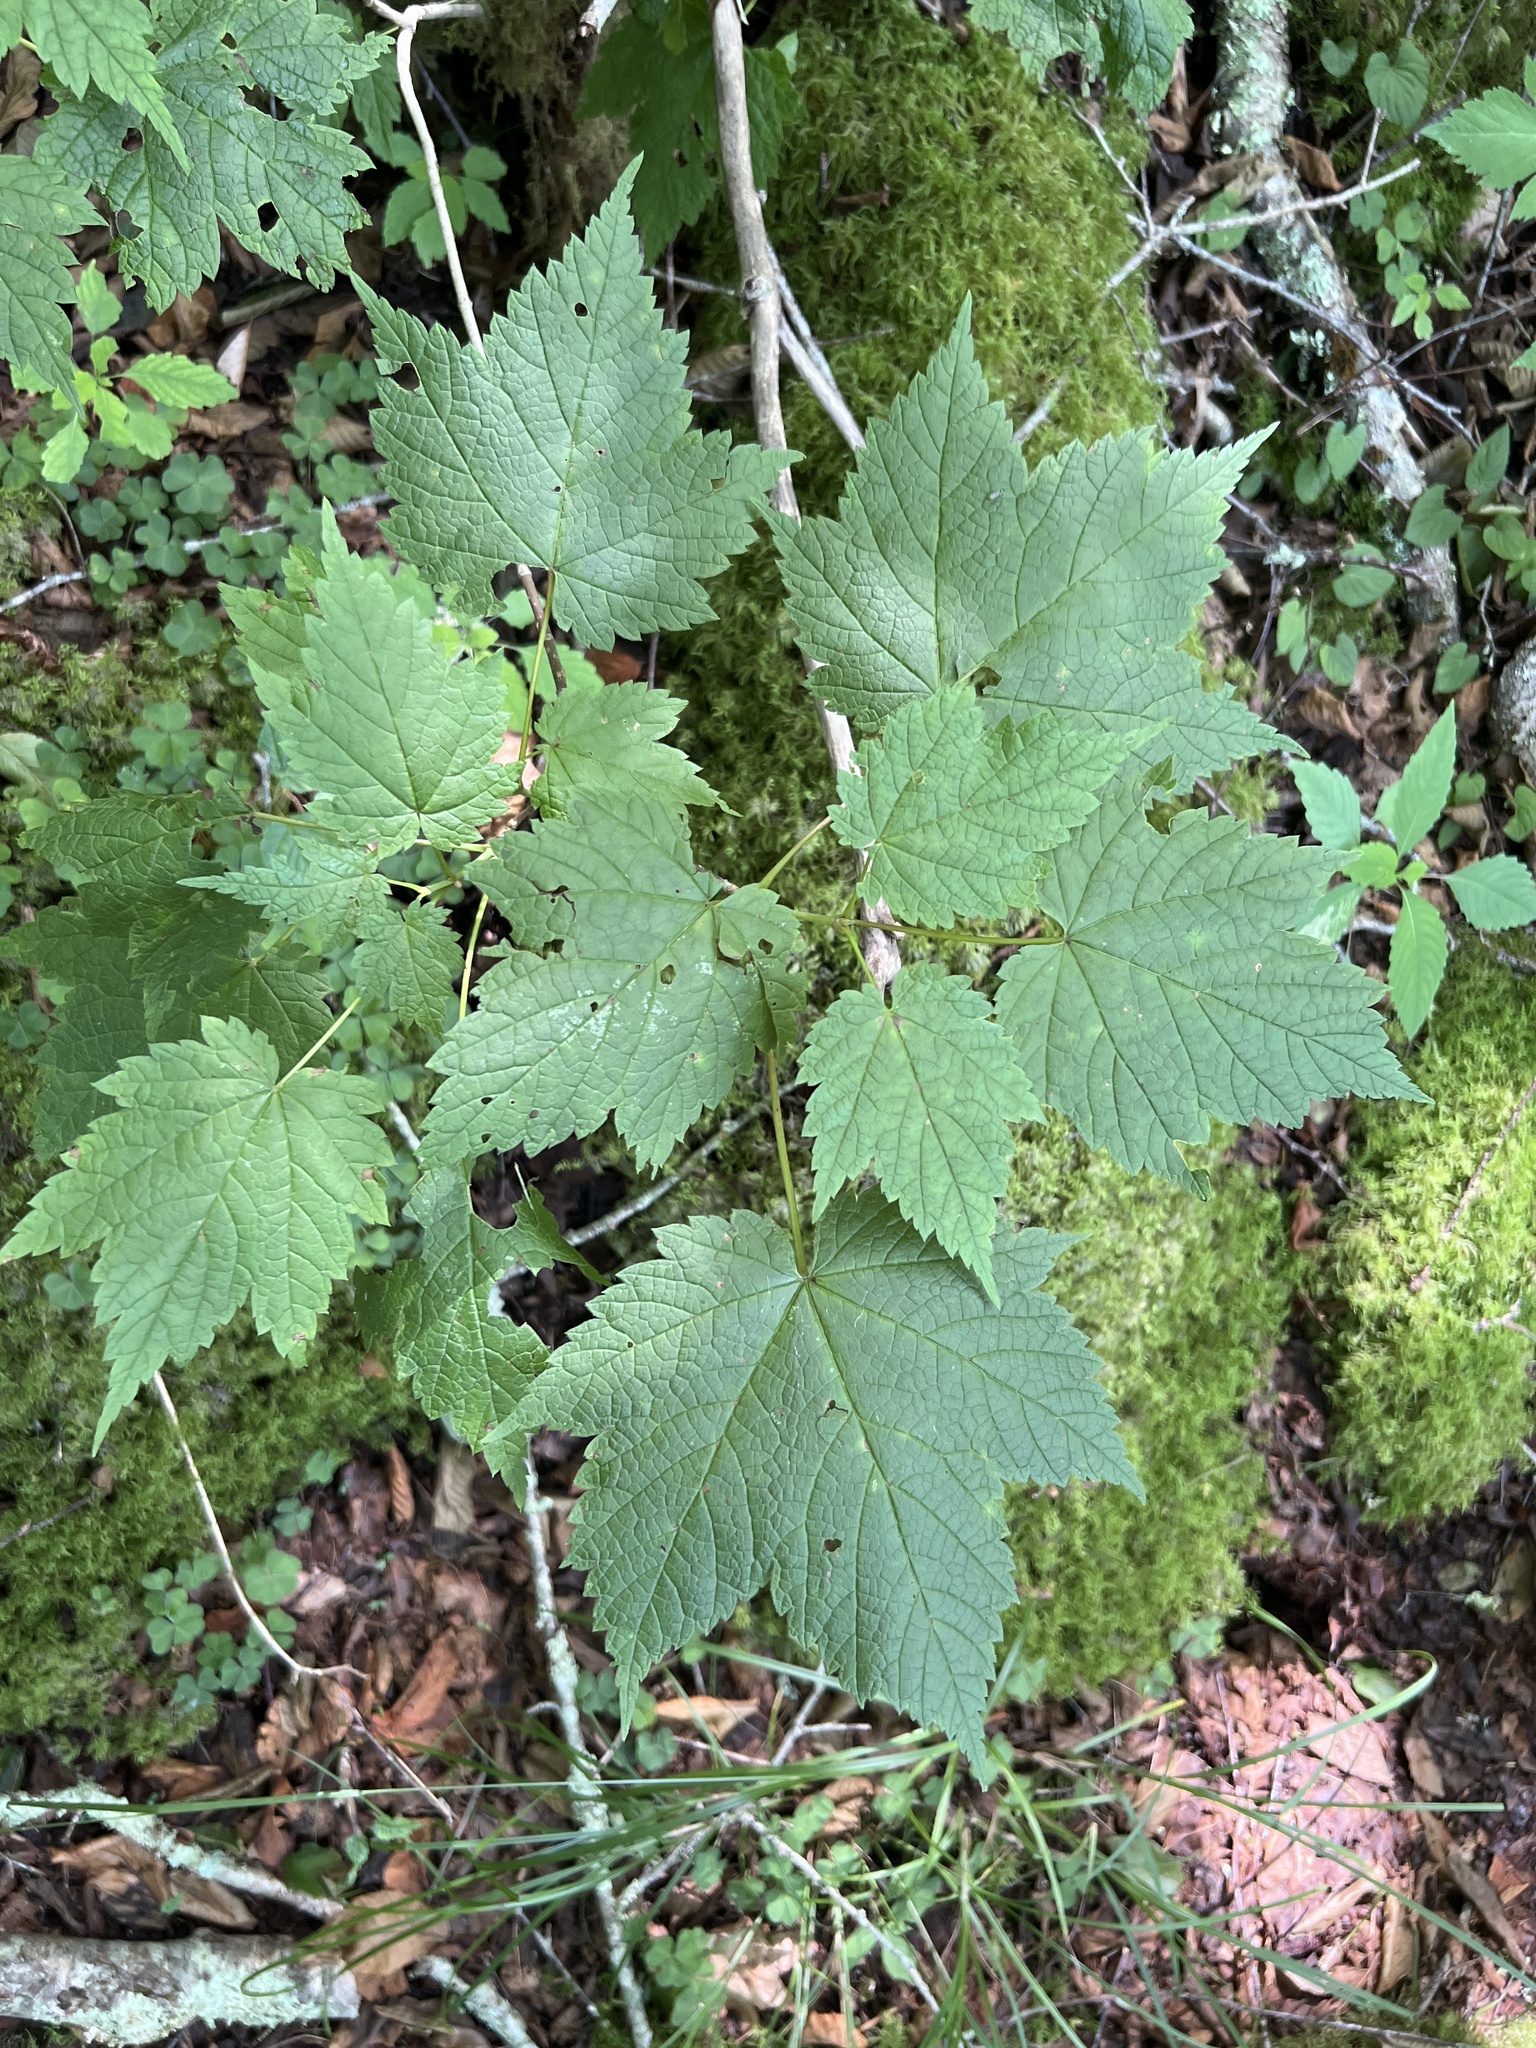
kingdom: Plantae
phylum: Tracheophyta
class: Magnoliopsida
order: Sapindales
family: Sapindaceae
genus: Acer
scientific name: Acer spicatum
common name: Mountain maple
